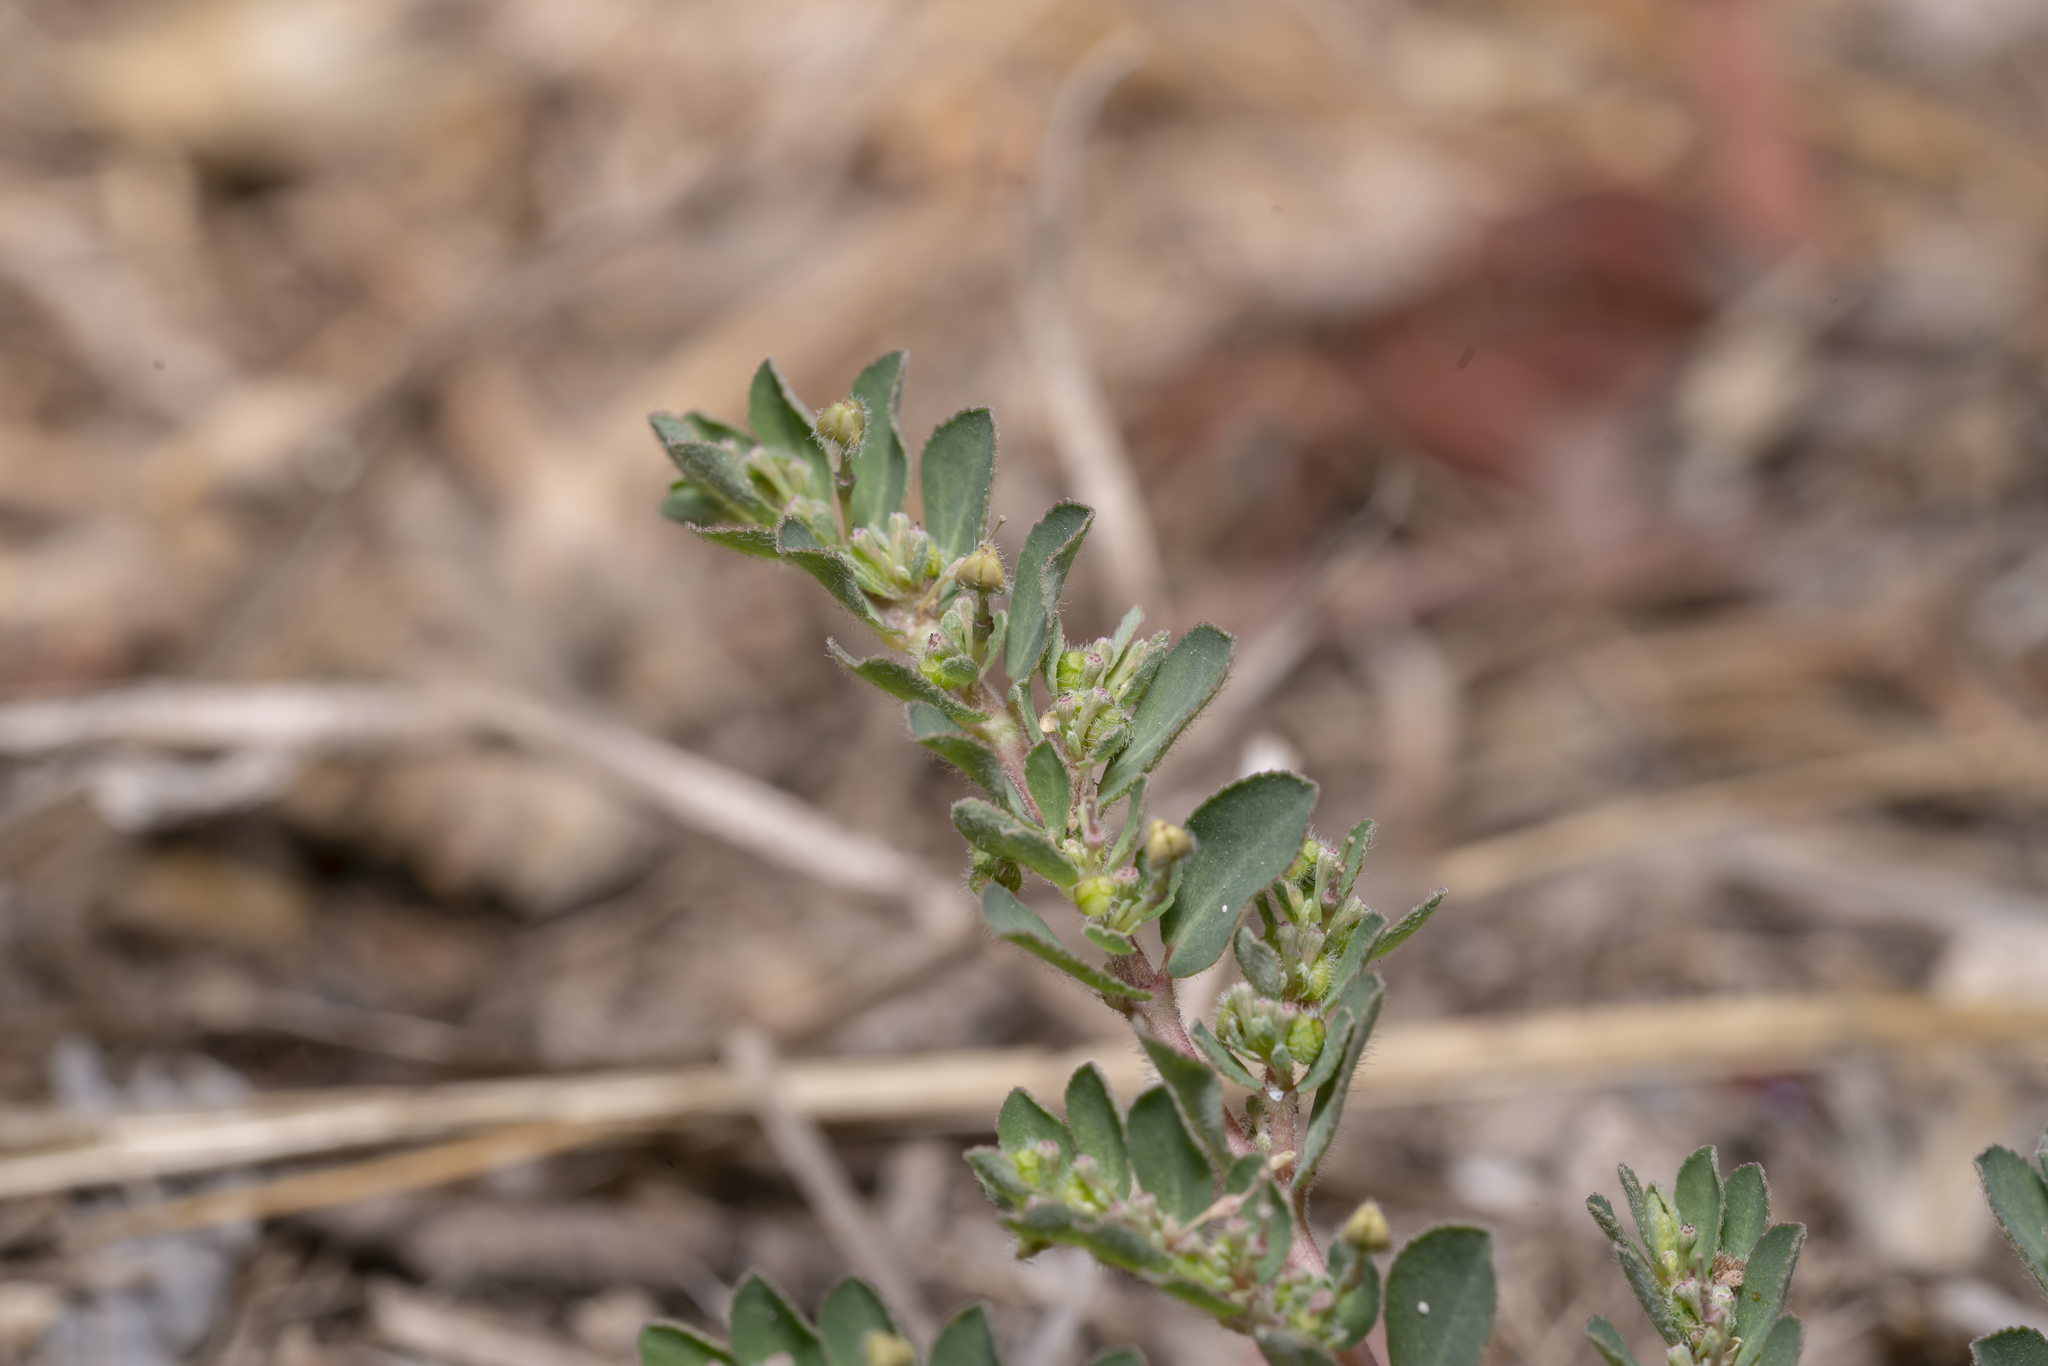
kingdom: Plantae
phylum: Tracheophyta
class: Magnoliopsida
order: Malpighiales
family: Euphorbiaceae
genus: Euphorbia
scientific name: Euphorbia prostrata
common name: Prostrate sandmat
